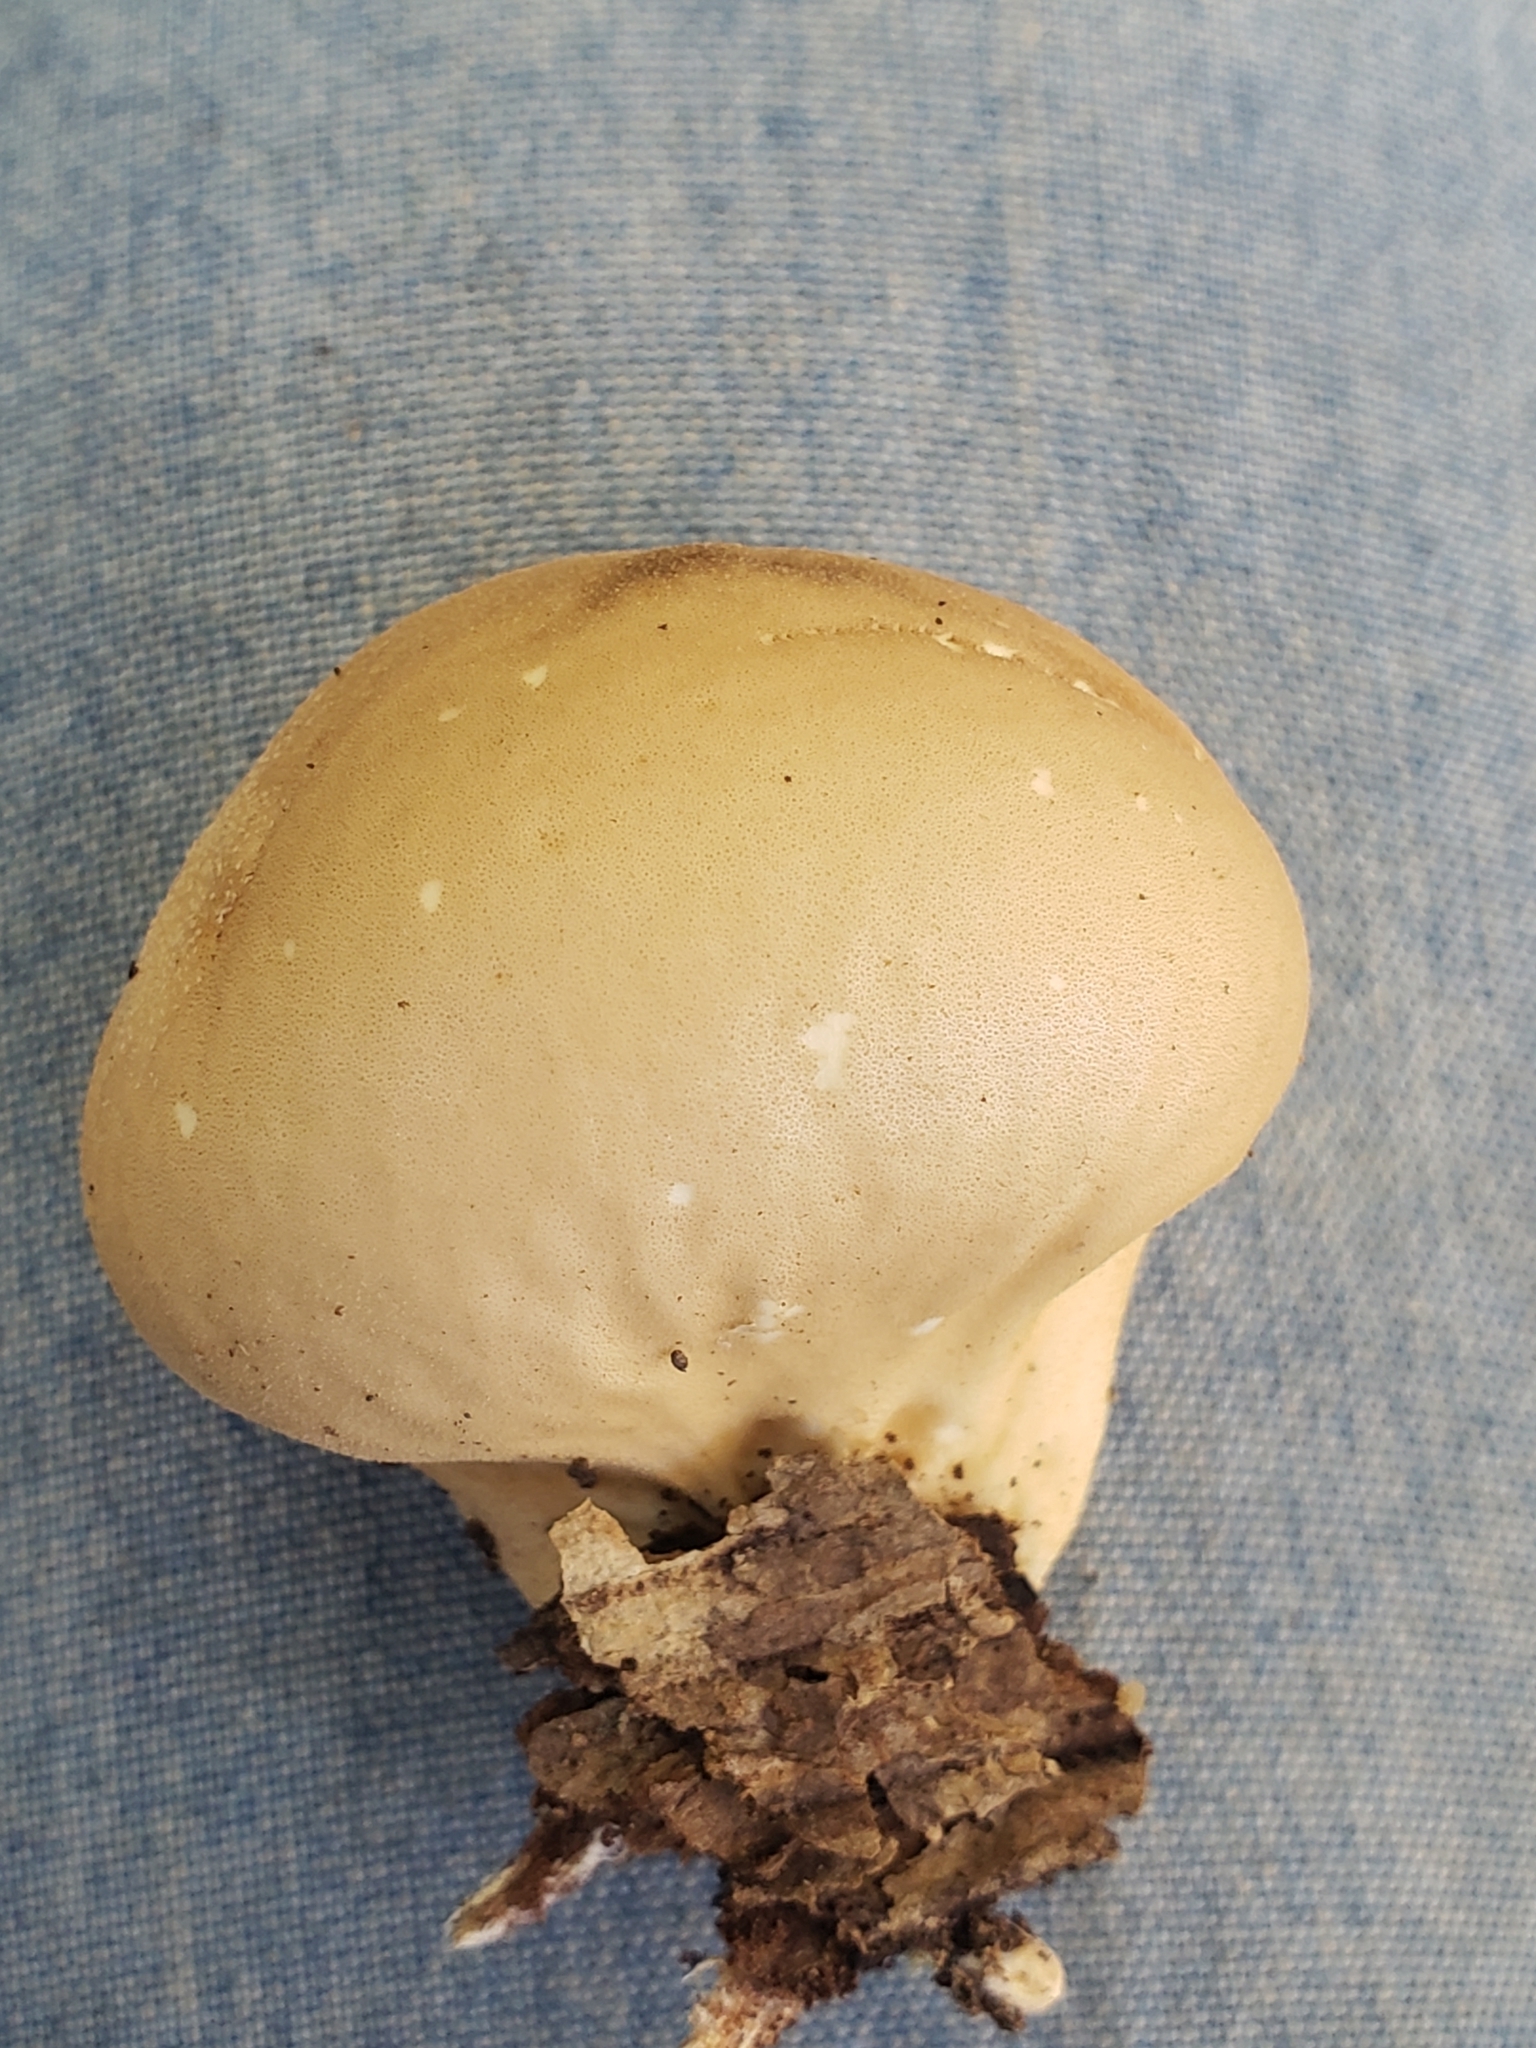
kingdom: Fungi
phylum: Basidiomycota
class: Agaricomycetes
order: Agaricales
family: Lycoperdaceae
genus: Apioperdon
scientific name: Apioperdon pyriforme
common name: Pear-shaped puffball
